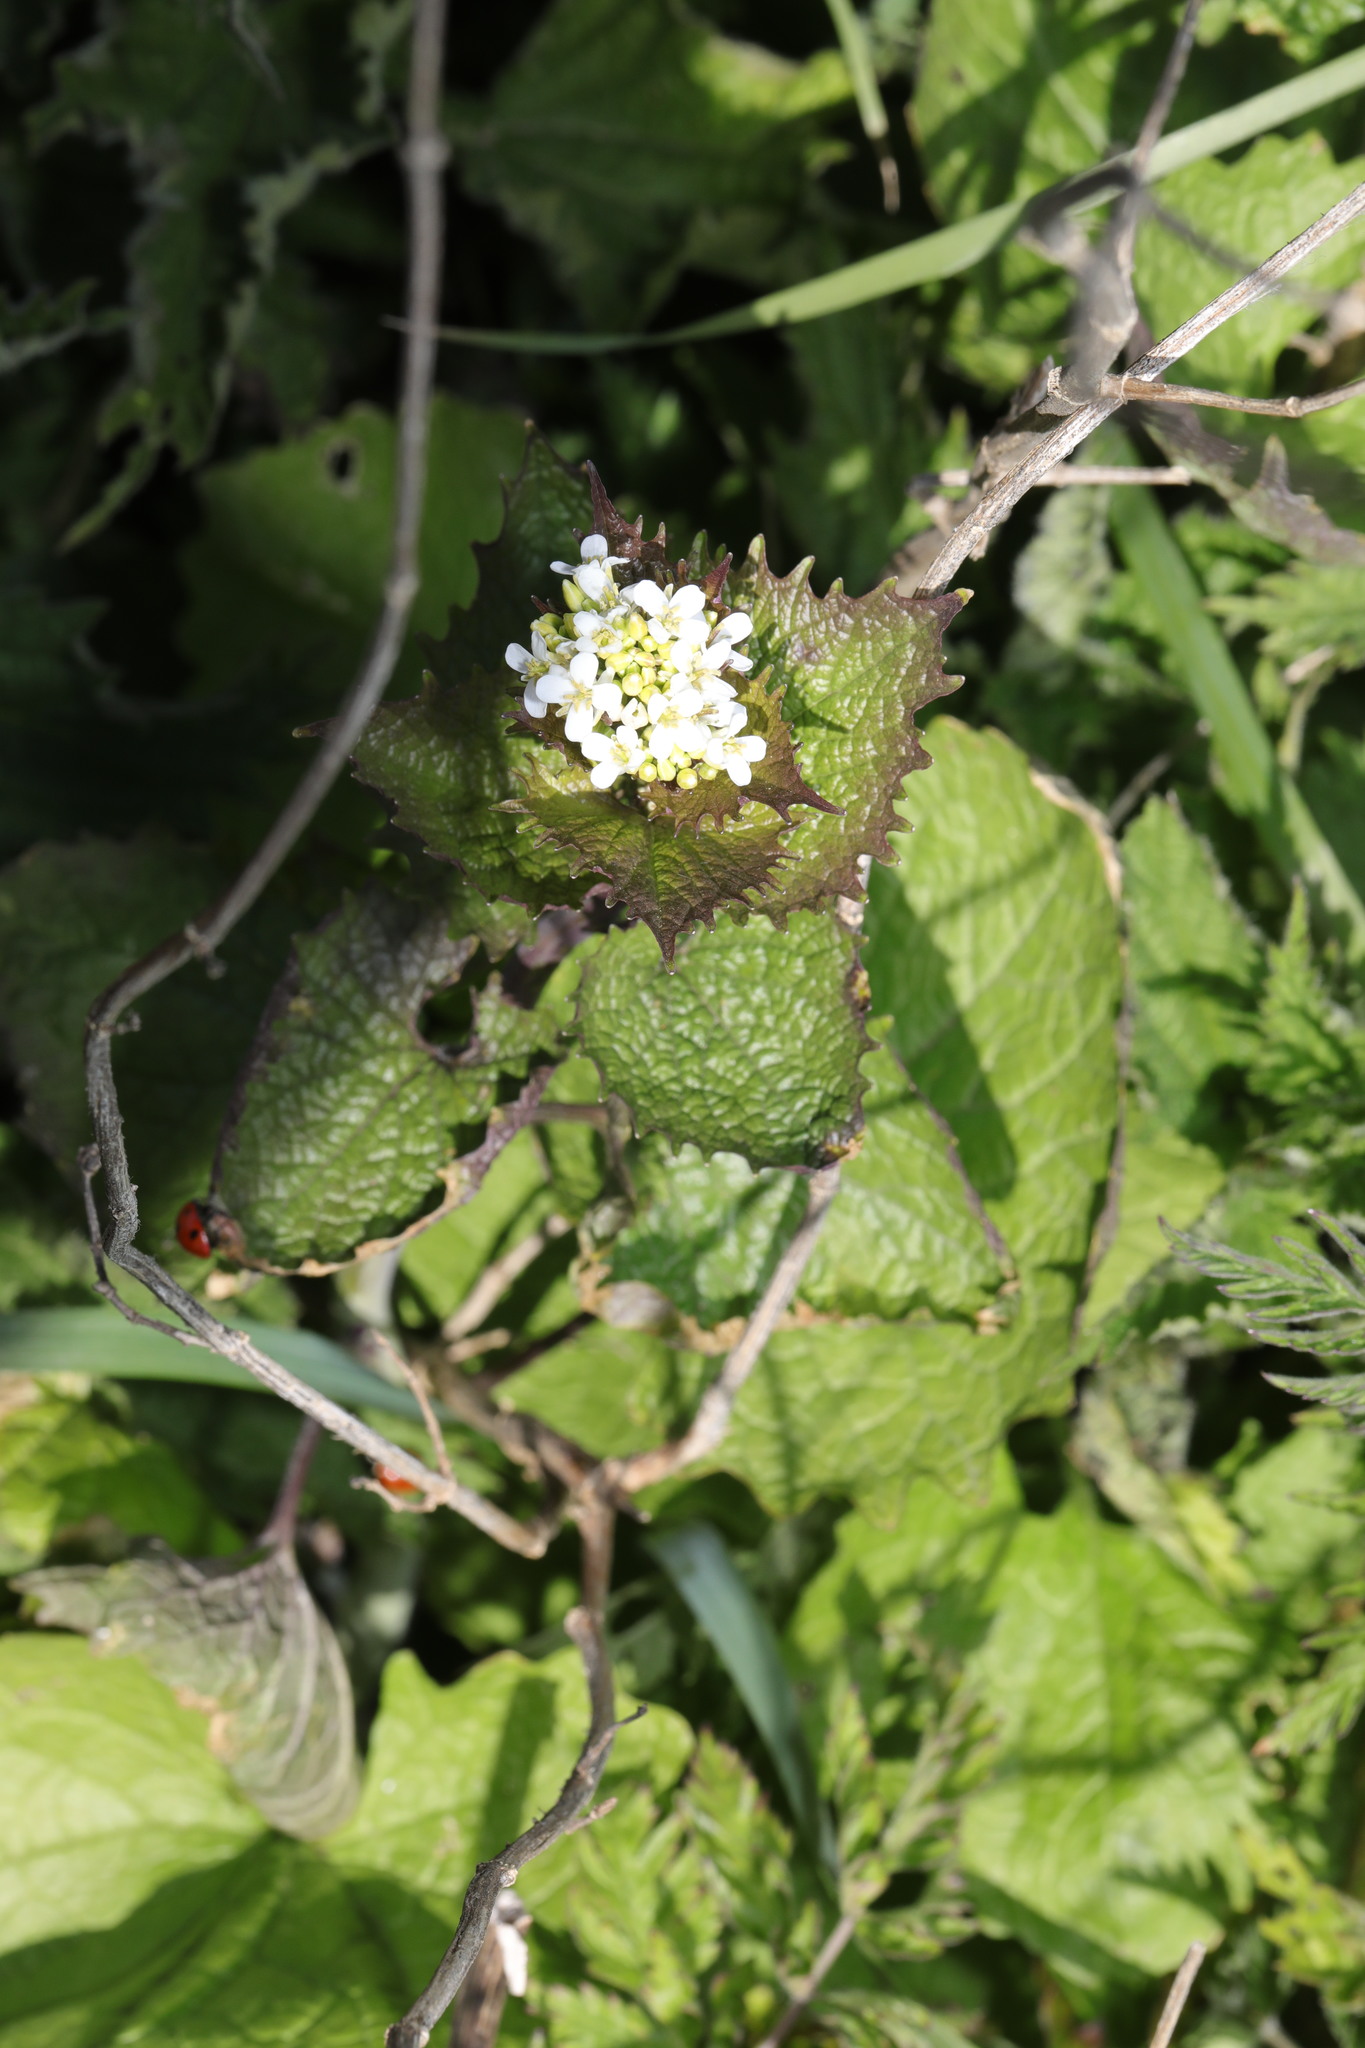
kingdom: Plantae
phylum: Tracheophyta
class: Magnoliopsida
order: Brassicales
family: Brassicaceae
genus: Alliaria
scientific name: Alliaria petiolata
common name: Garlic mustard
